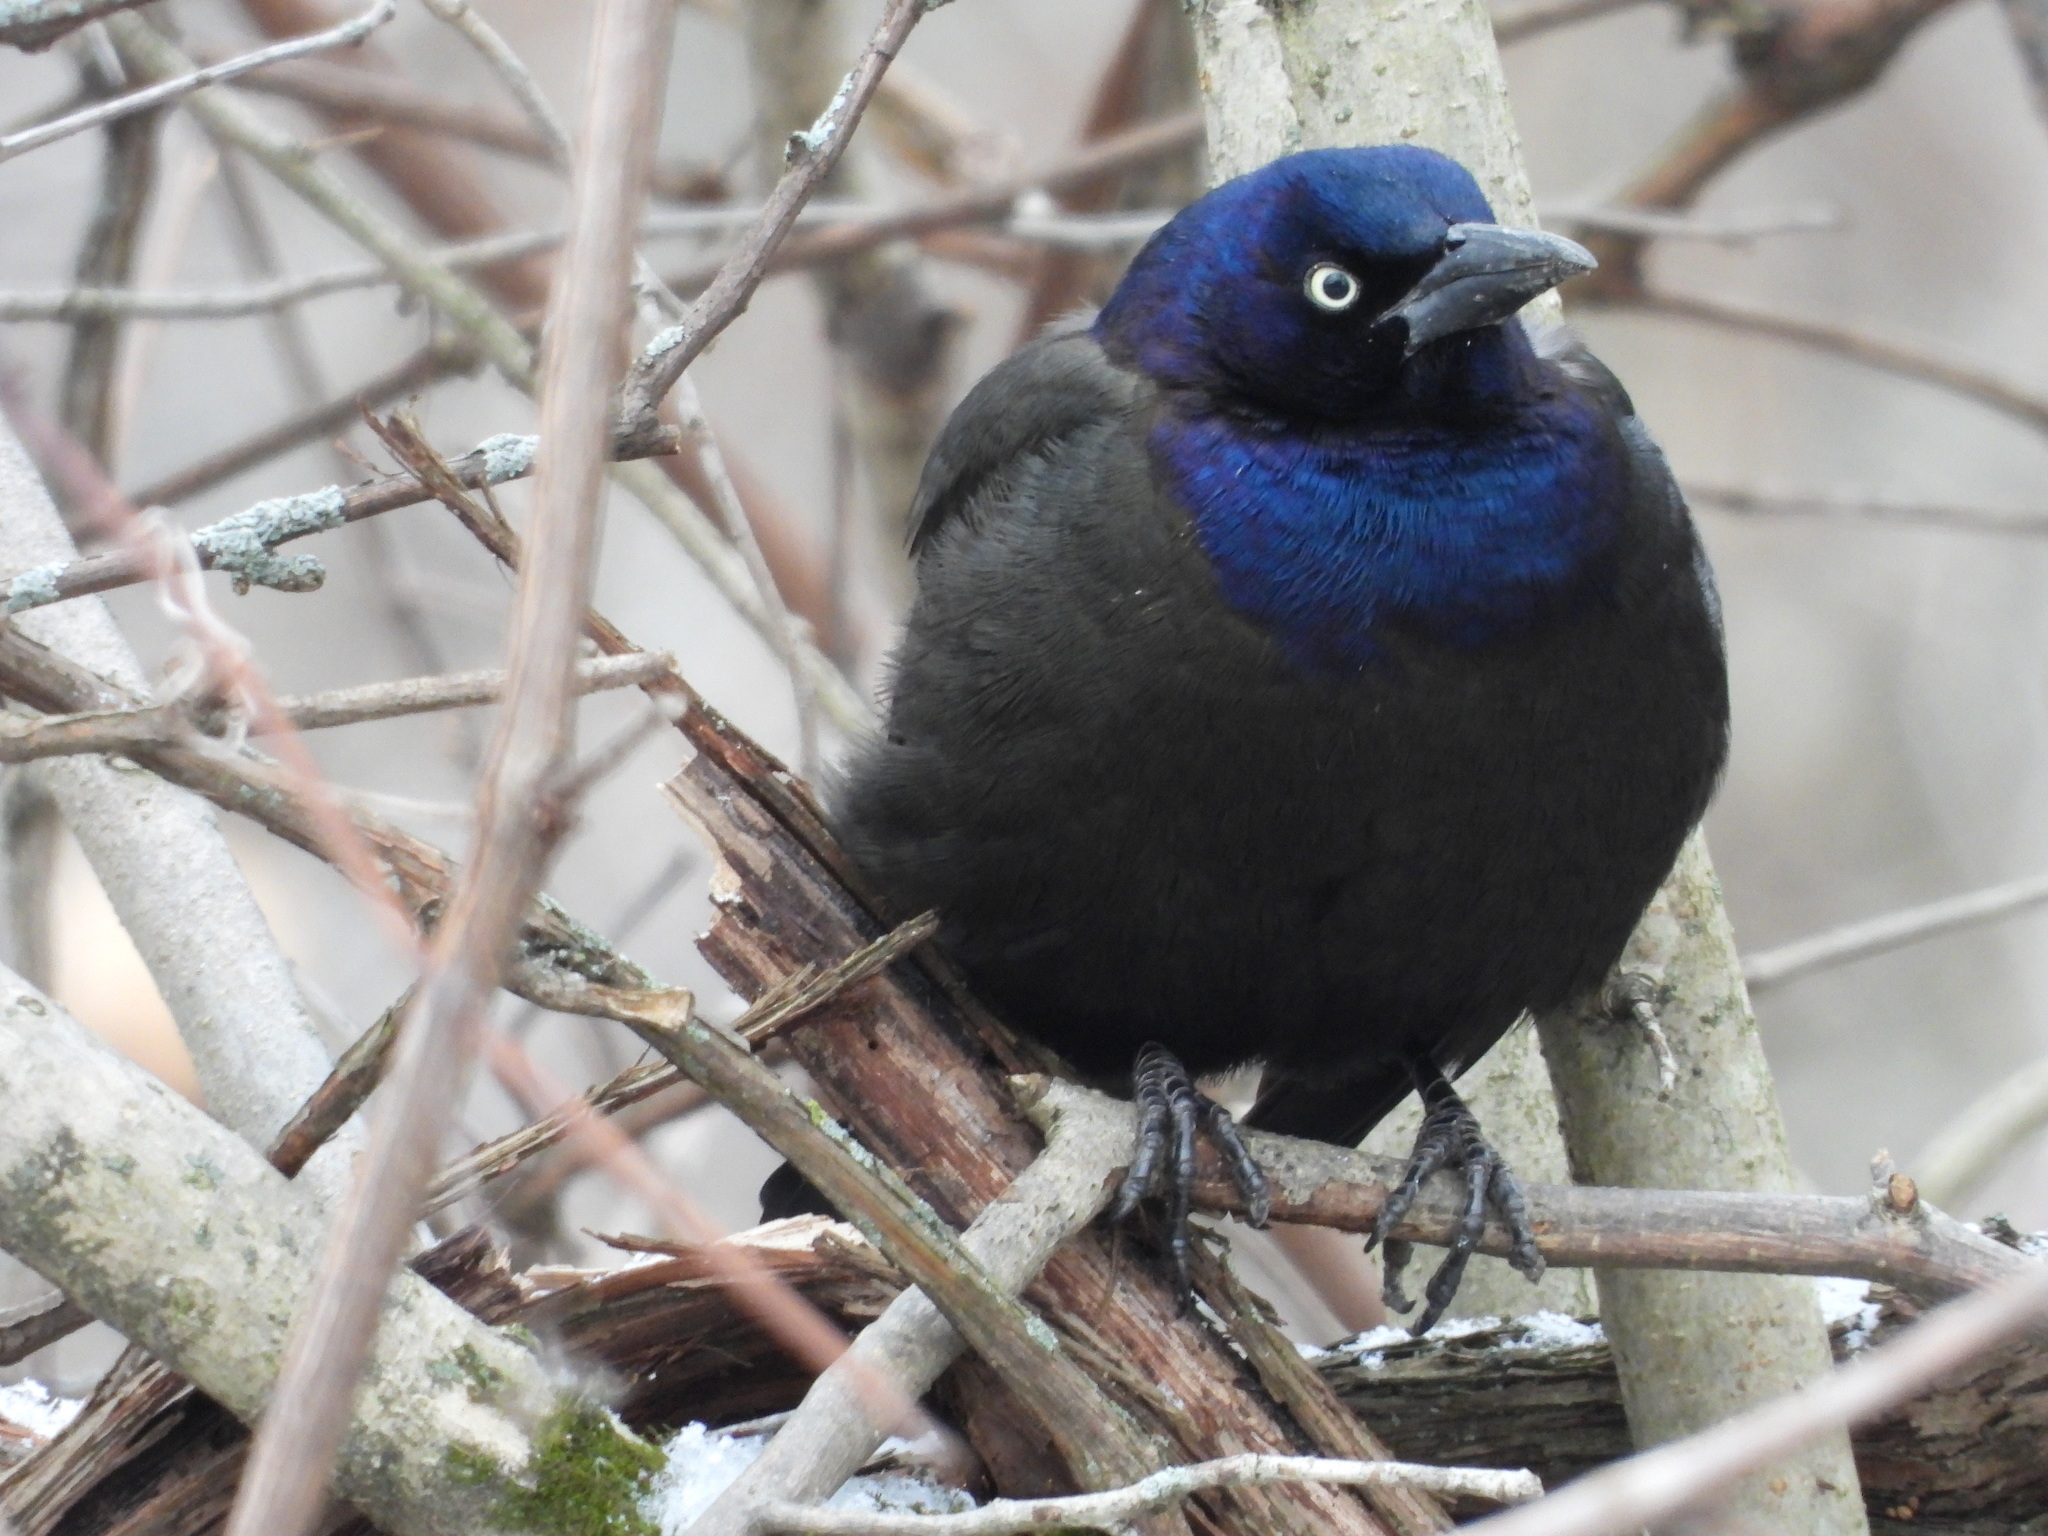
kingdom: Animalia
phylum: Chordata
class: Aves
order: Passeriformes
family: Icteridae
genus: Quiscalus
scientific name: Quiscalus quiscula
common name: Common grackle
